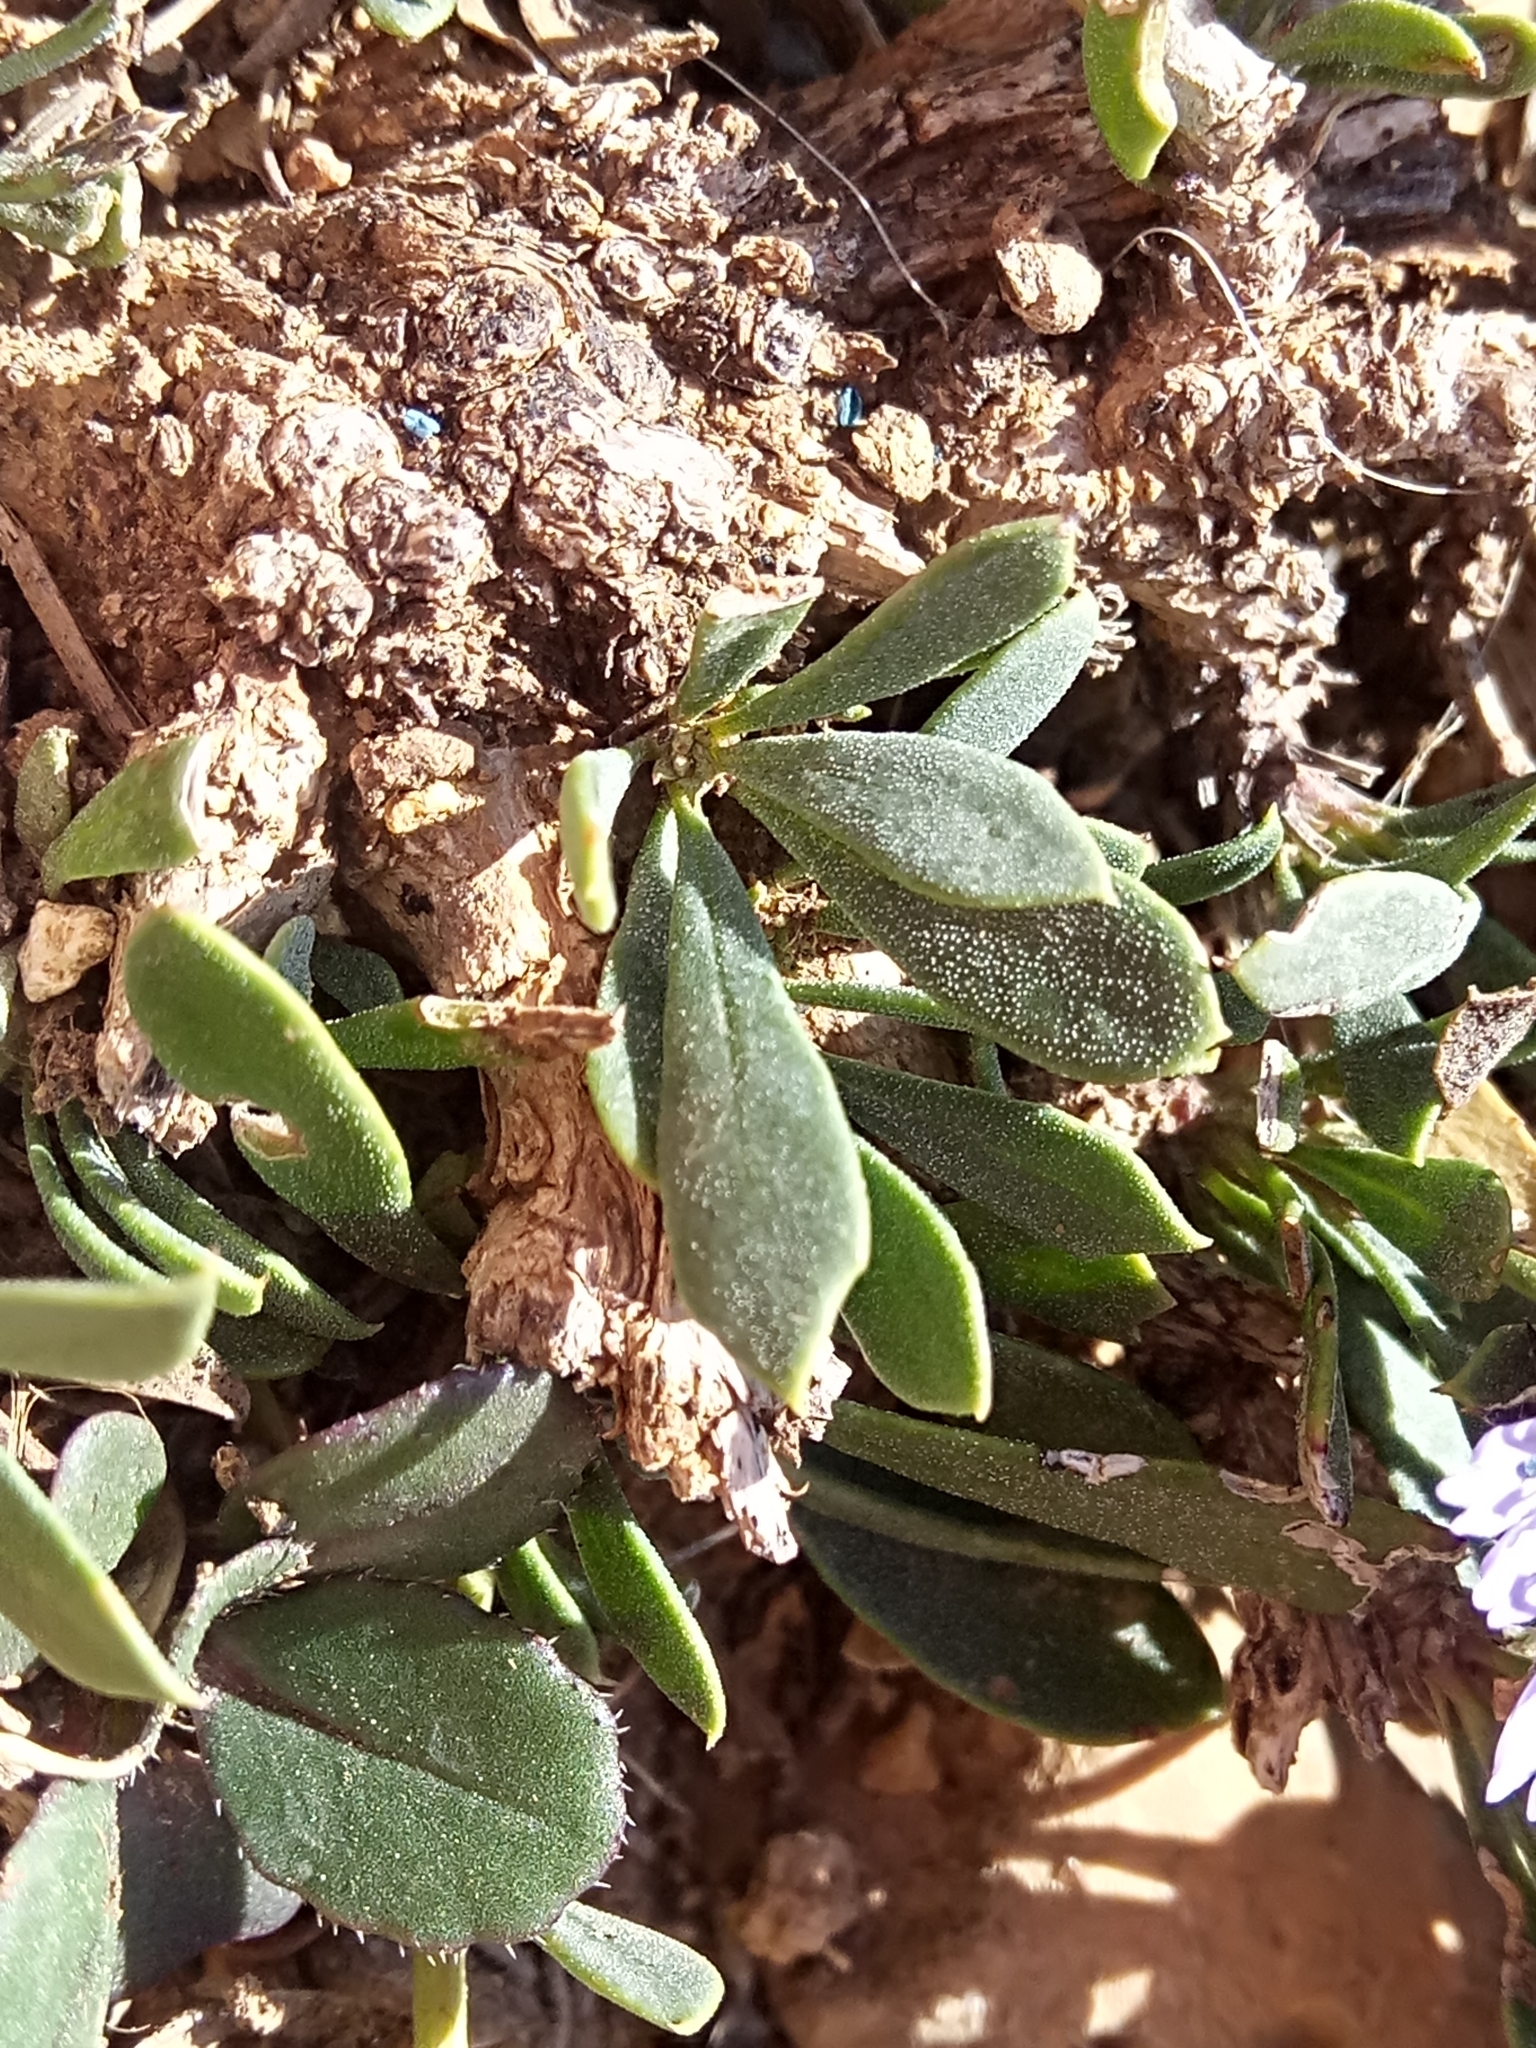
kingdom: Plantae
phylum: Tracheophyta
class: Magnoliopsida
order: Lamiales
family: Plantaginaceae
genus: Globularia
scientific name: Globularia alypum
